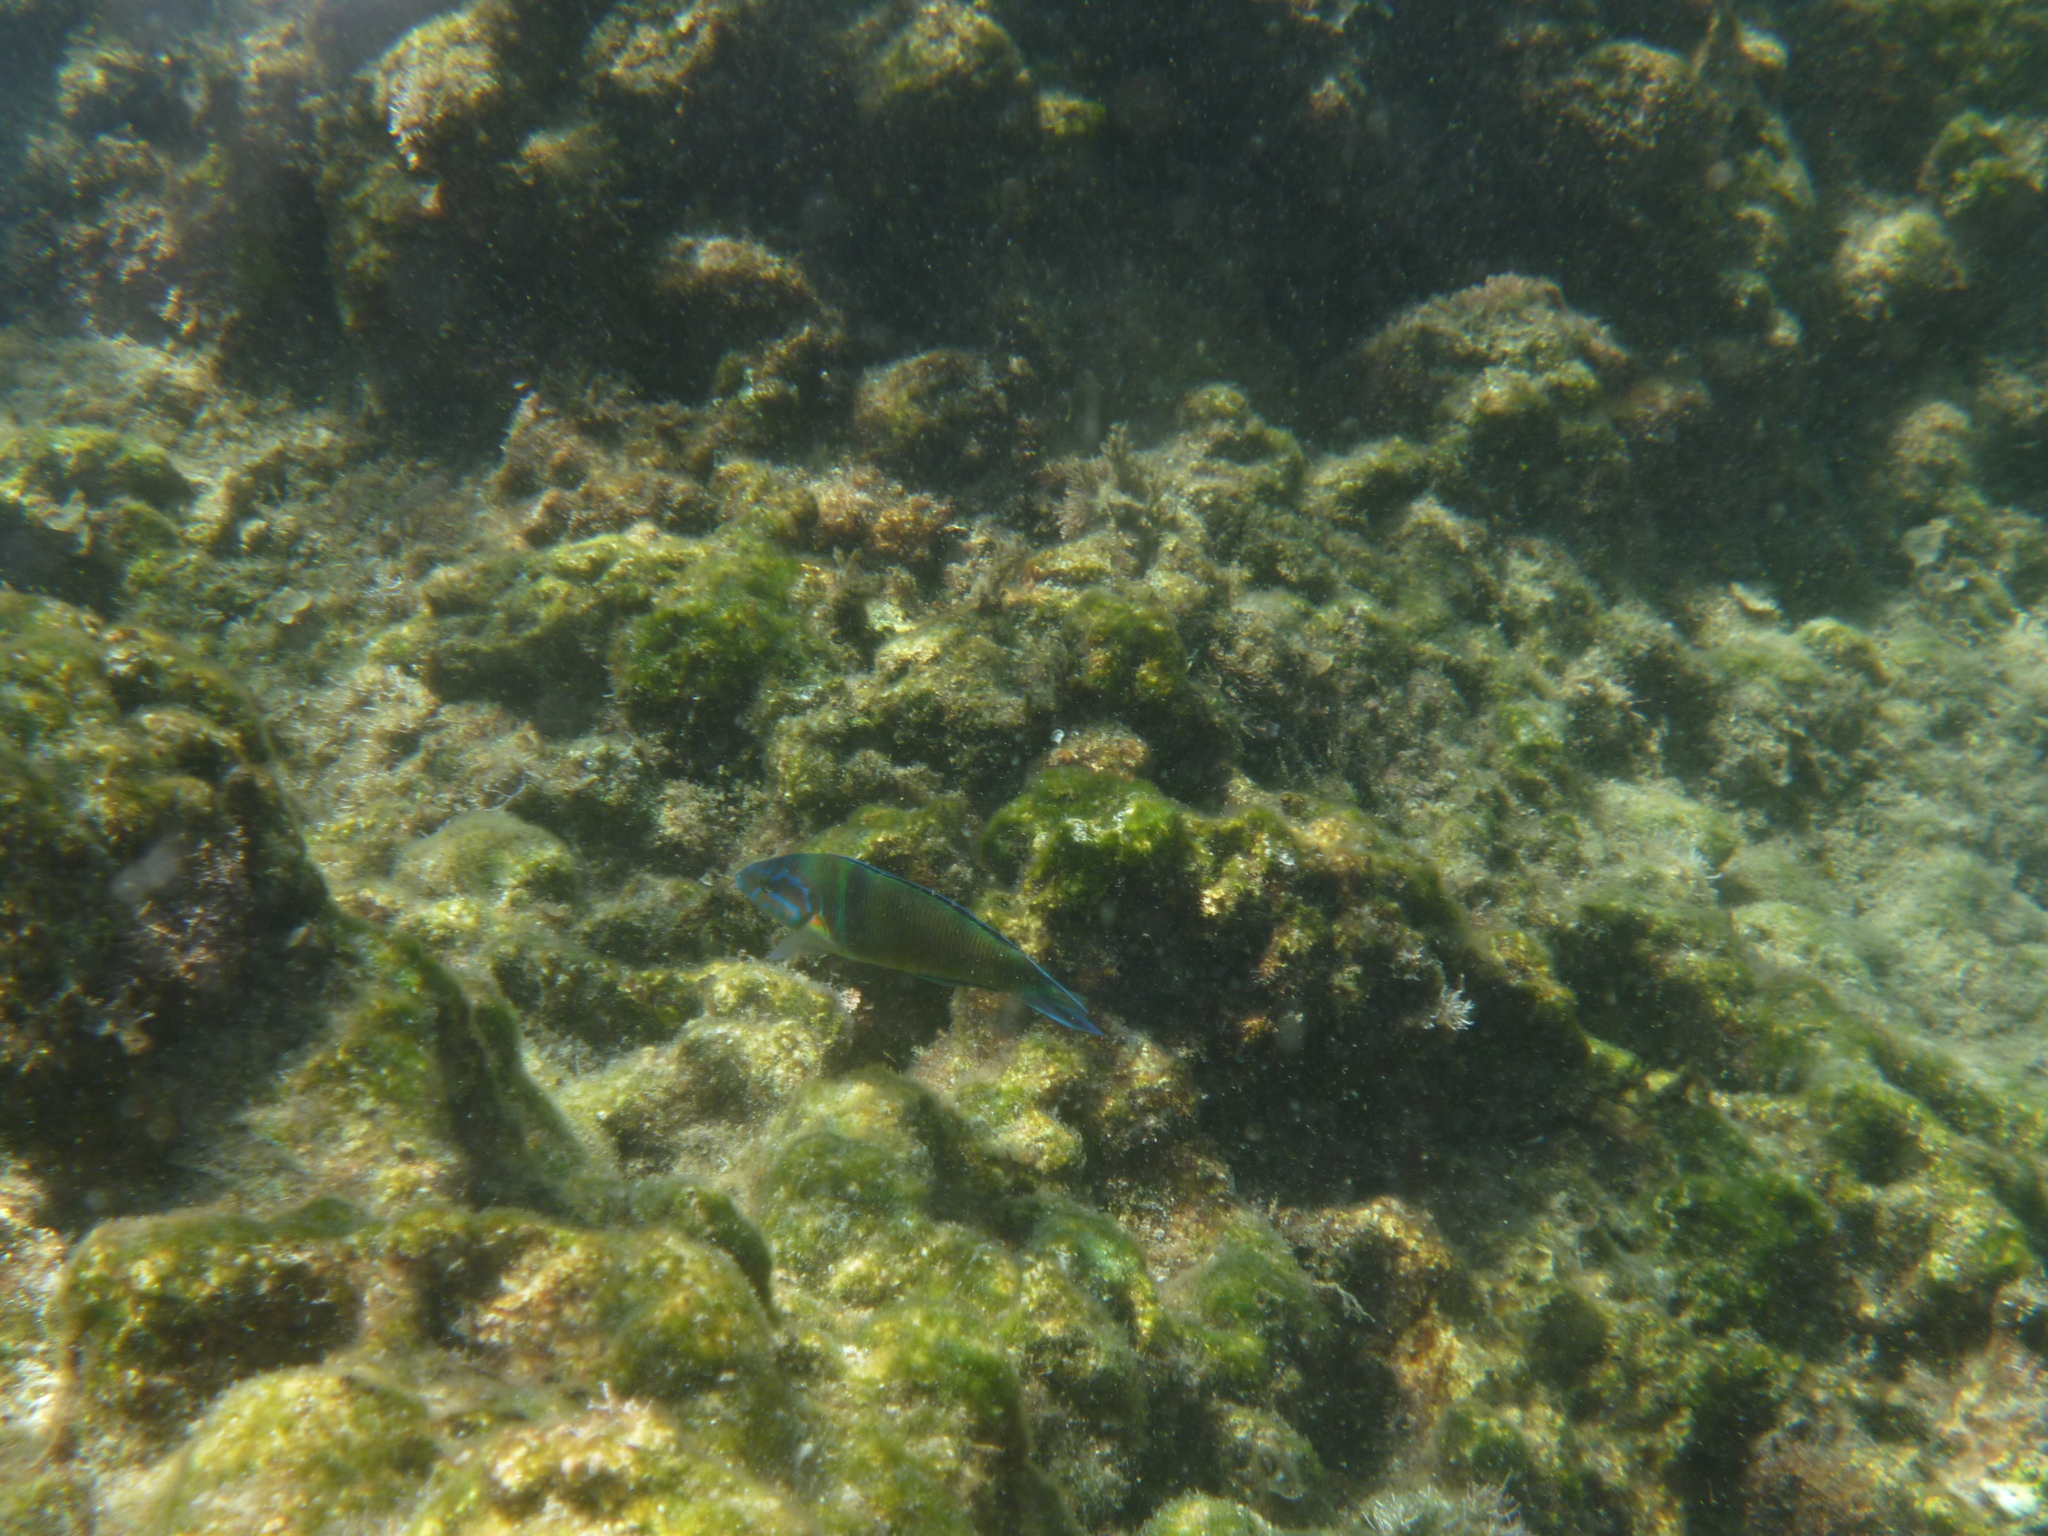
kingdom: Animalia
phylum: Chordata
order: Perciformes
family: Labridae
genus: Thalassoma
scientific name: Thalassoma pavo
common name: Ornate wrasse
